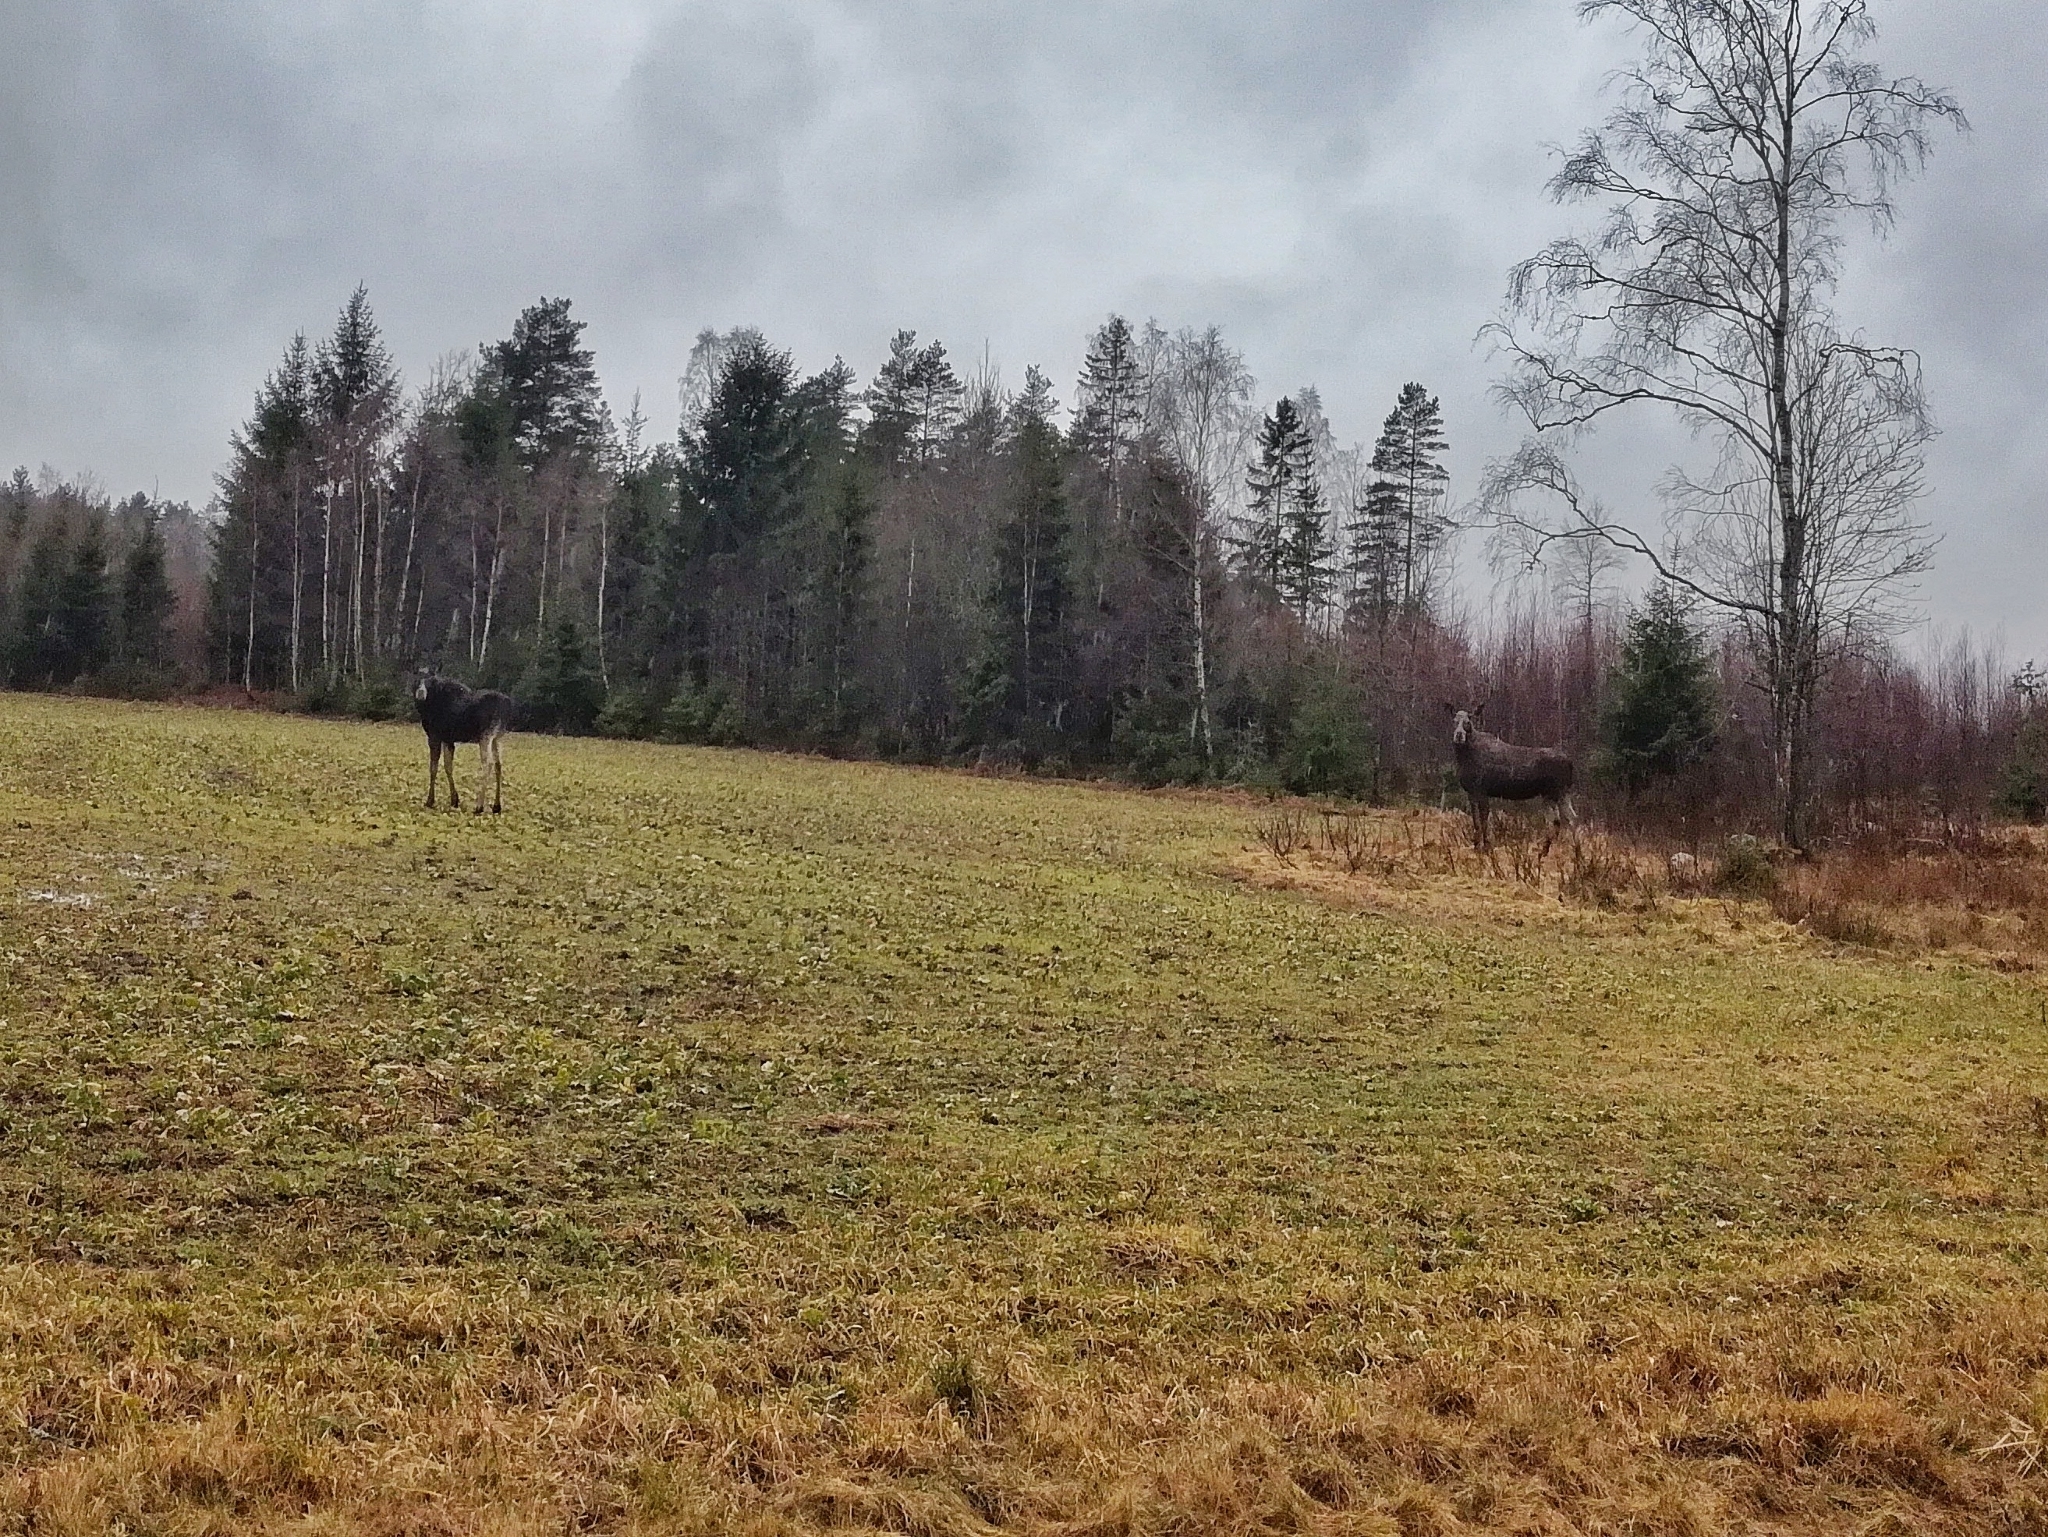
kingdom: Animalia
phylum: Chordata
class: Mammalia
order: Artiodactyla
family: Cervidae
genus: Alces
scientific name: Alces alces
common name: Moose
